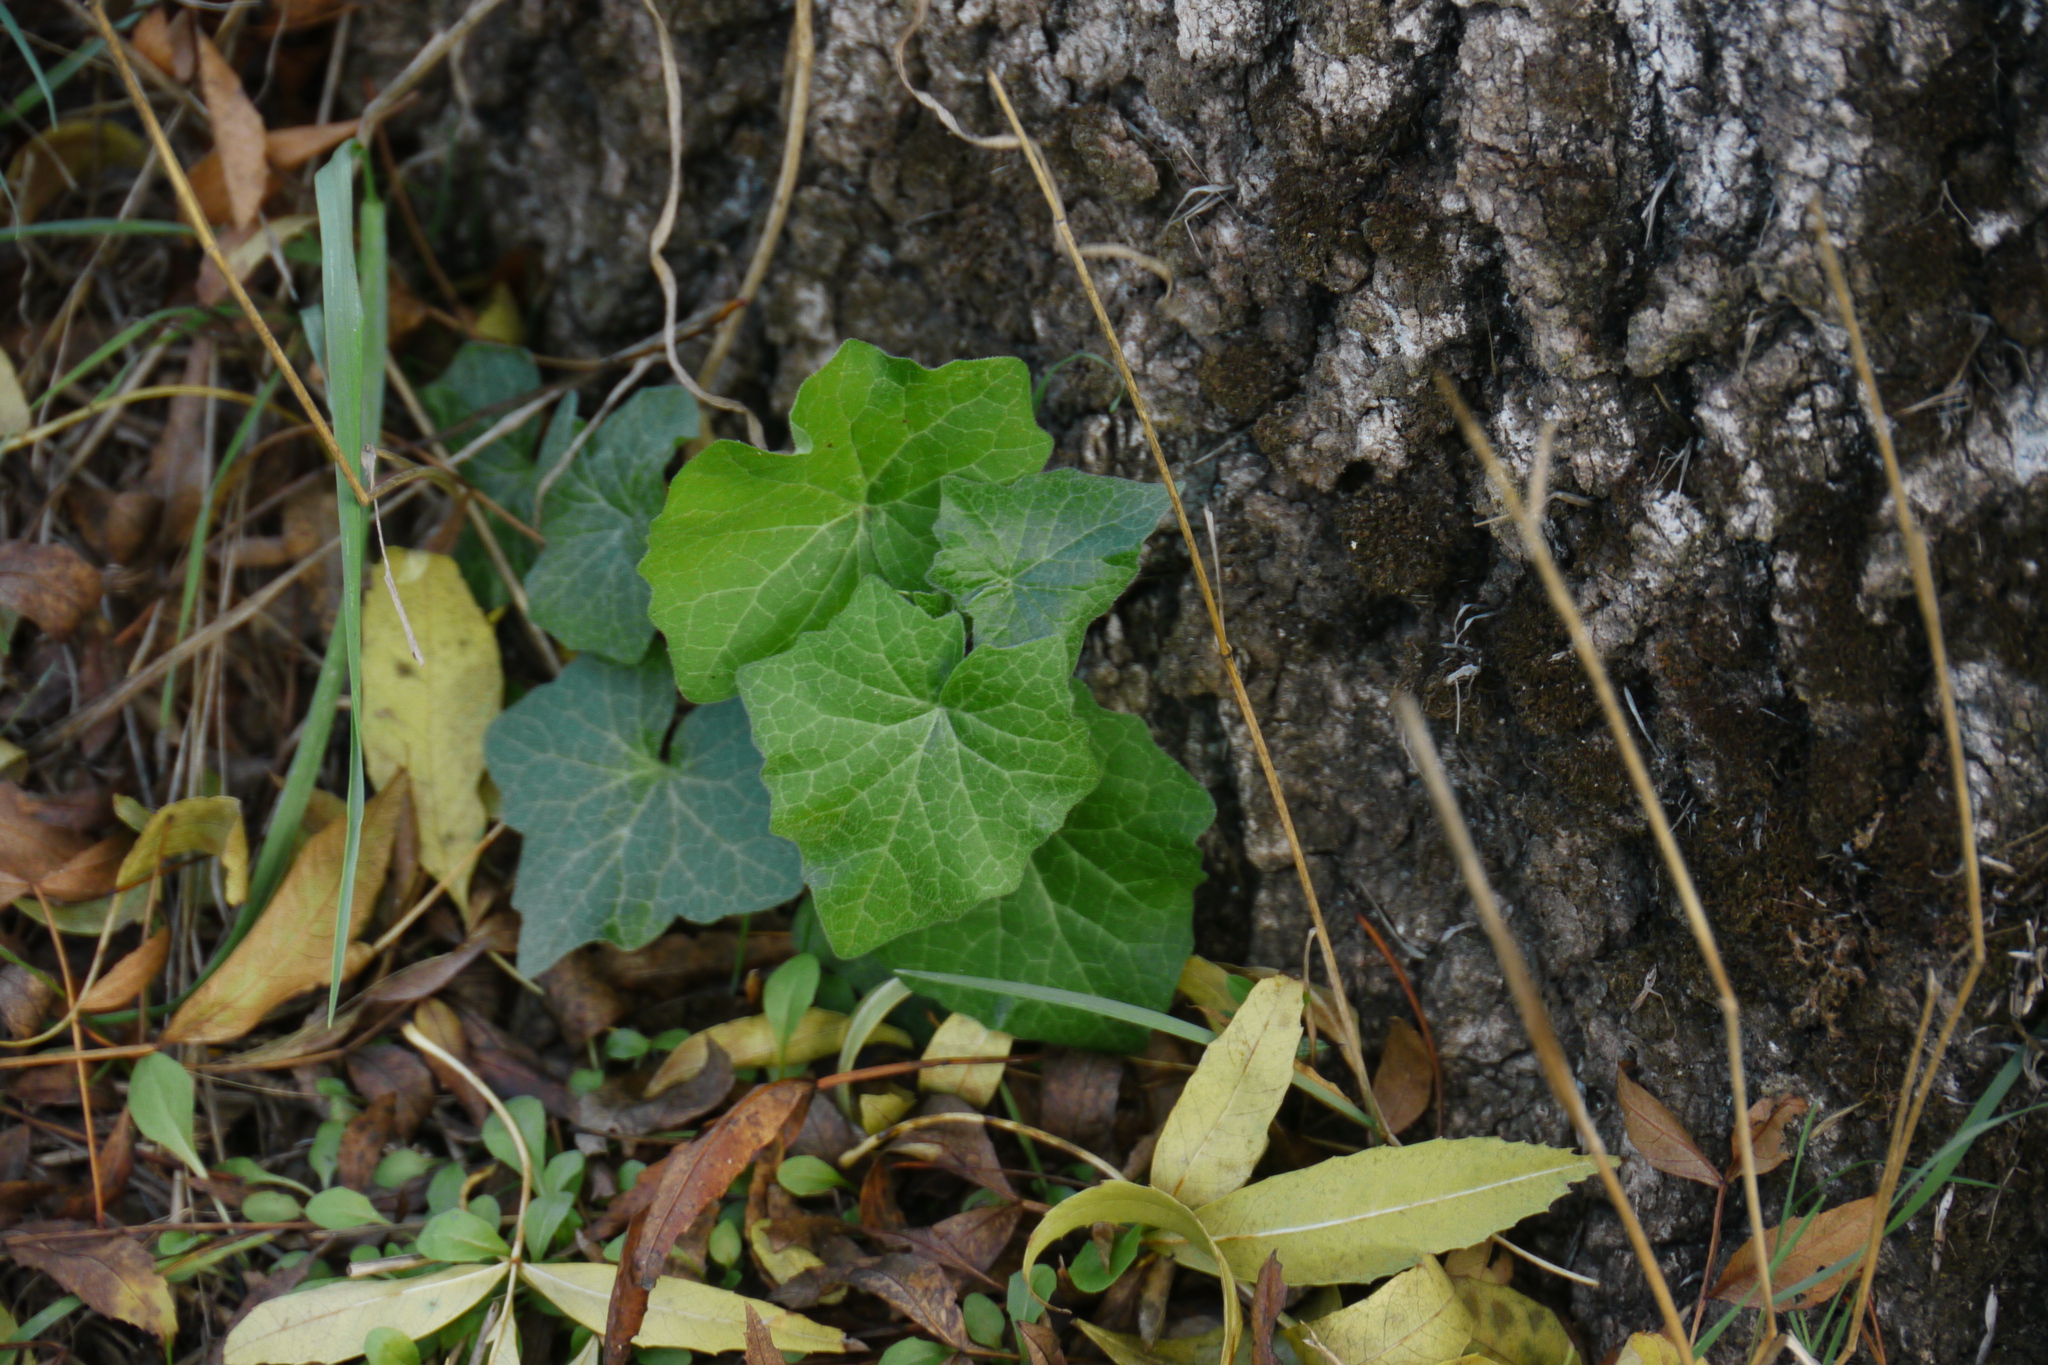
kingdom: Plantae
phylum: Tracheophyta
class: Magnoliopsida
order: Cucurbitales
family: Cucurbitaceae
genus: Bryonia
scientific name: Bryonia dioica
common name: White bryony
